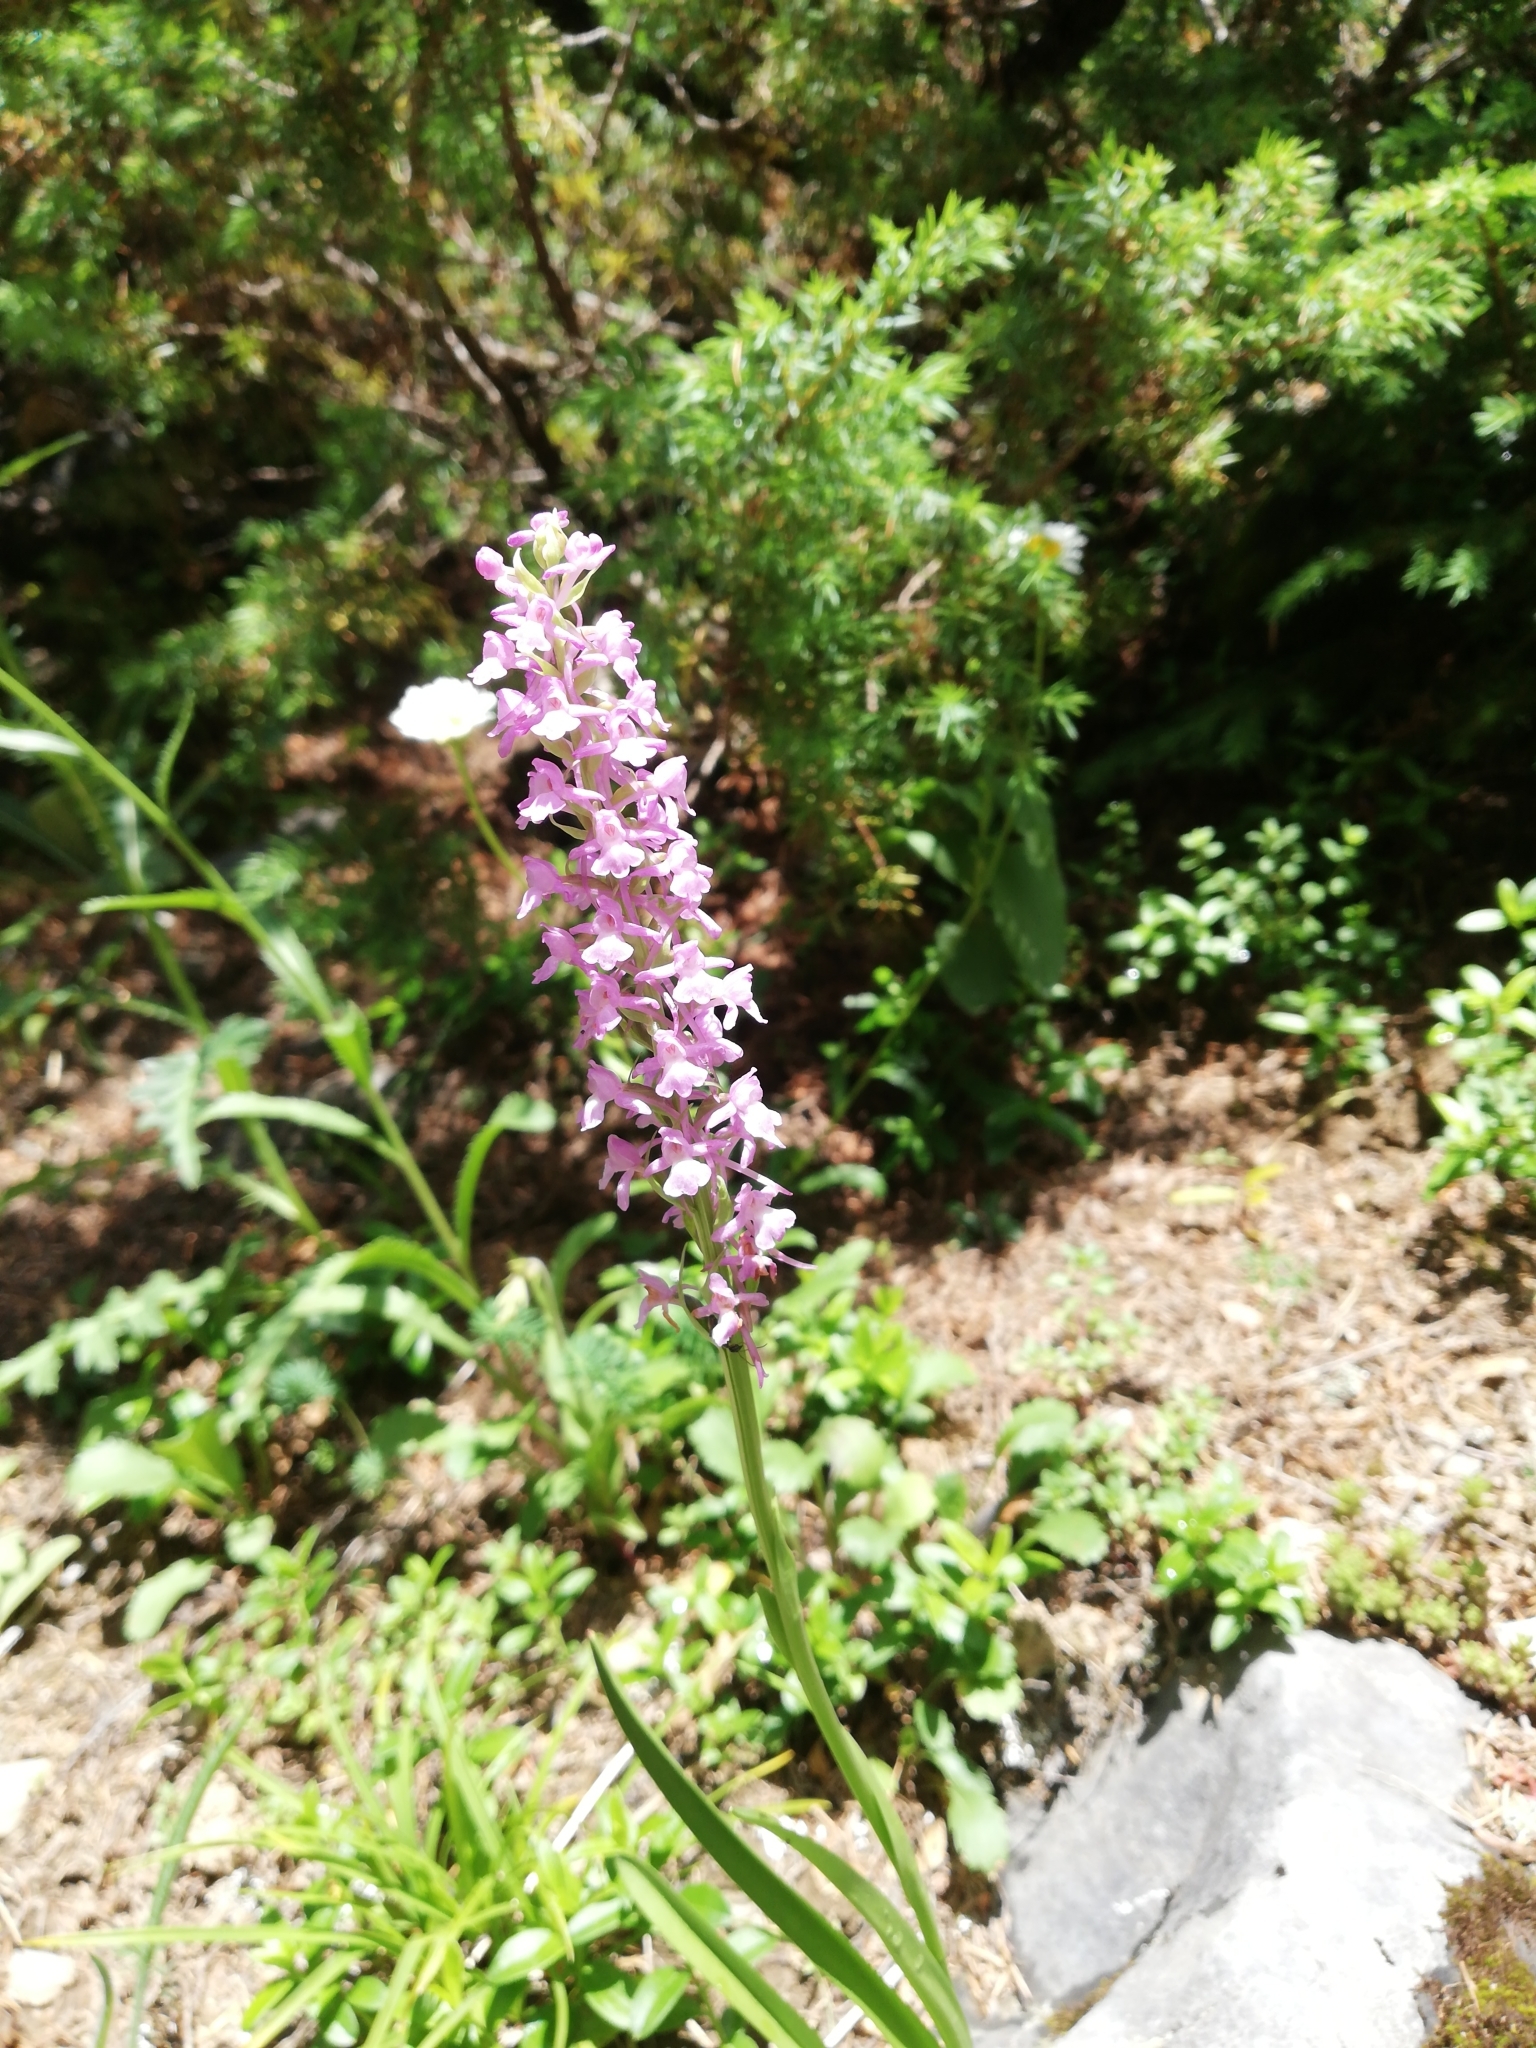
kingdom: Plantae
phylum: Tracheophyta
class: Liliopsida
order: Asparagales
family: Orchidaceae
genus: Gymnadenia
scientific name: Gymnadenia conopsea
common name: Fragrant orchid
